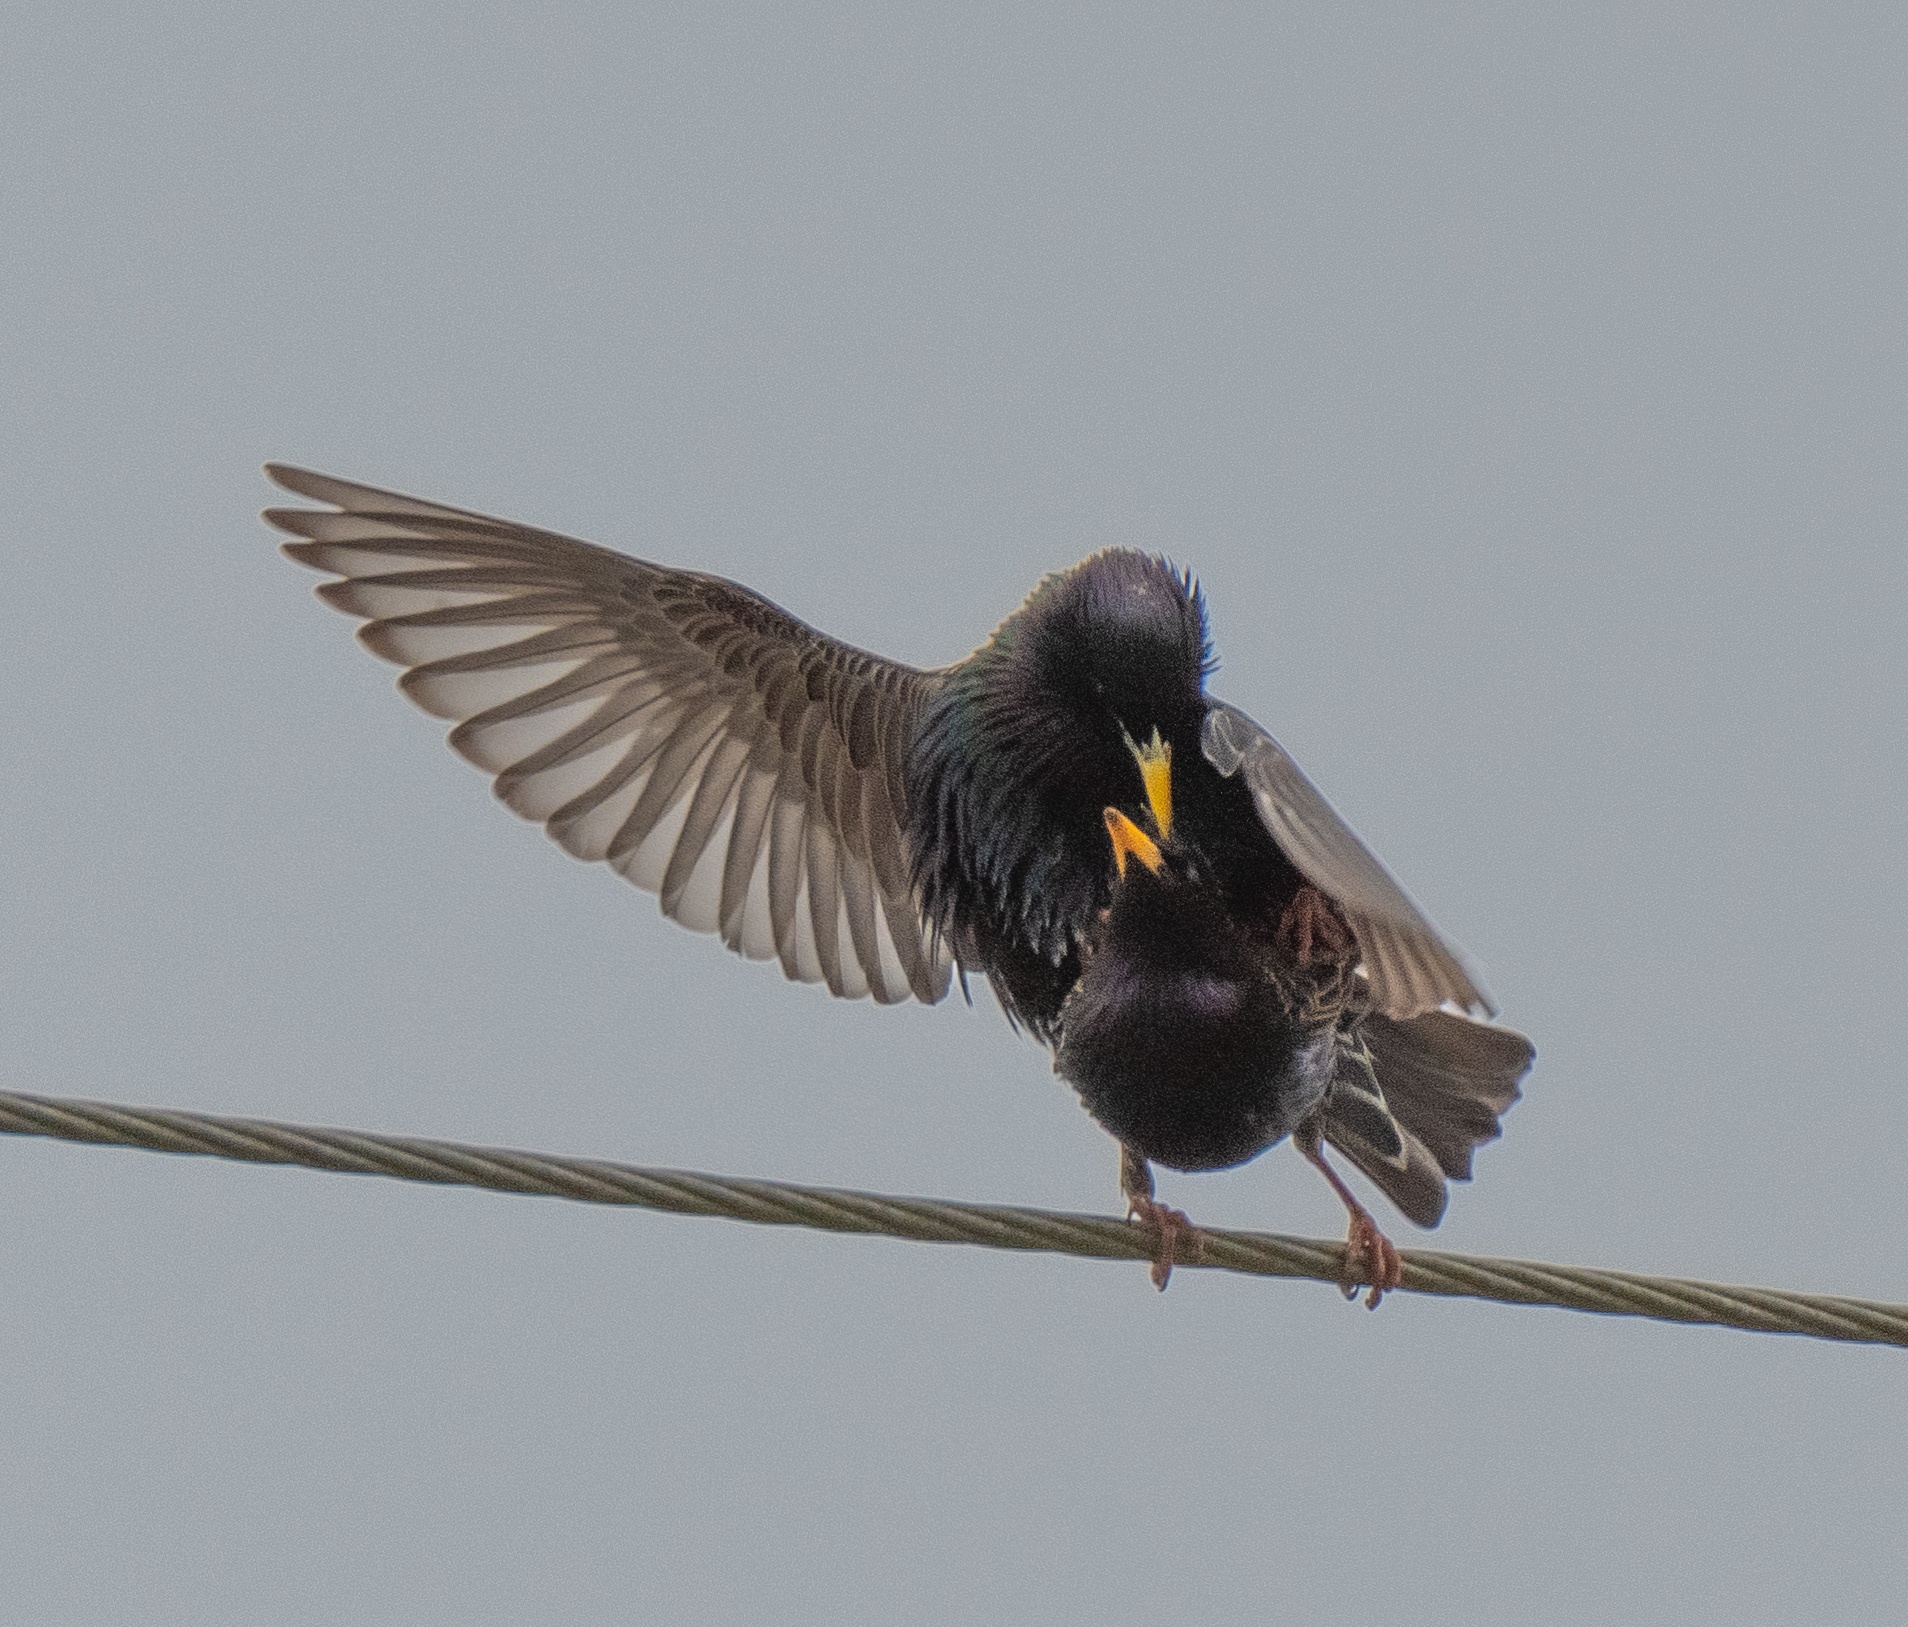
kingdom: Animalia
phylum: Chordata
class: Aves
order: Passeriformes
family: Sturnidae
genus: Sturnus
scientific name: Sturnus vulgaris
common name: Common starling
